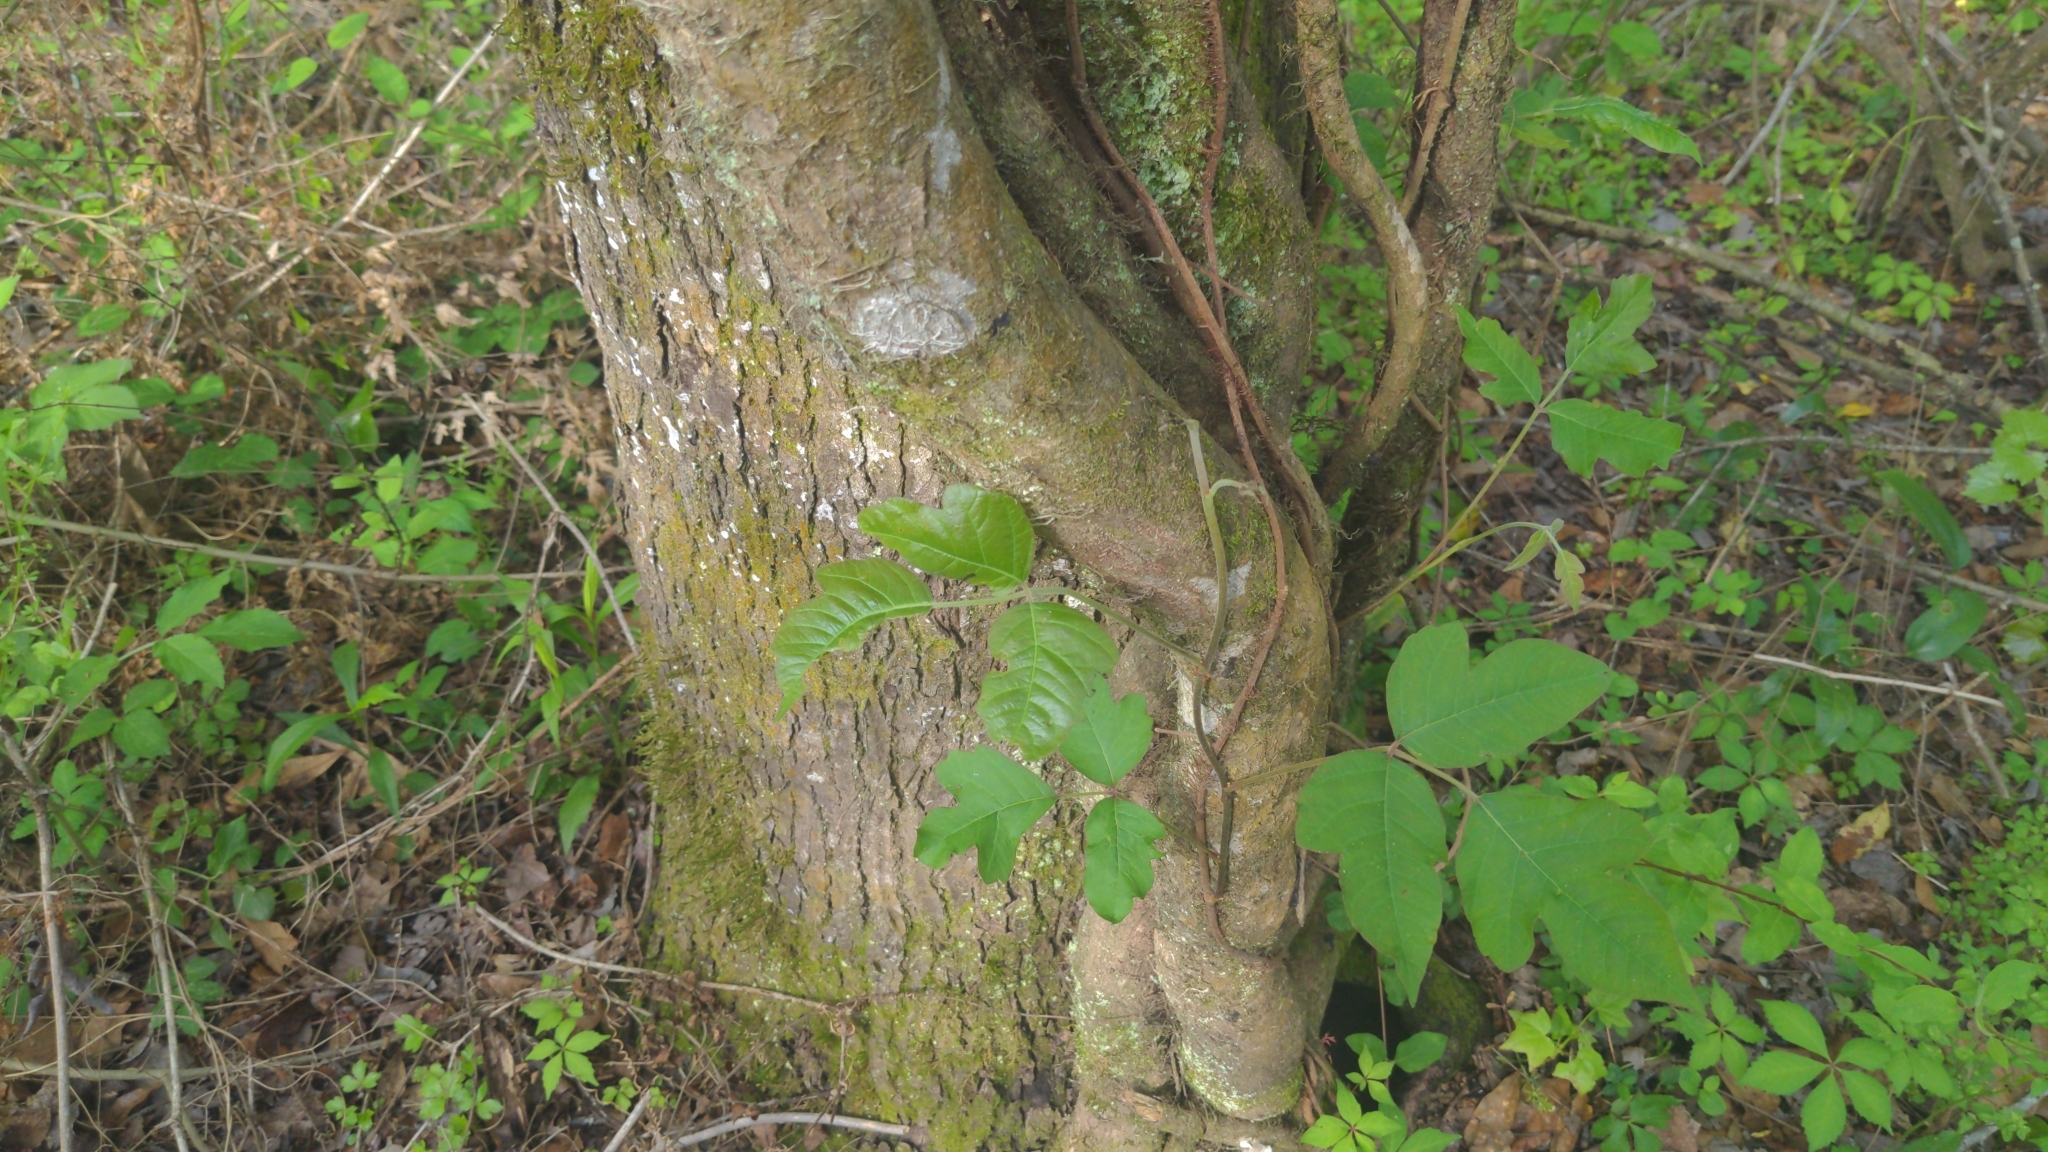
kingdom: Plantae
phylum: Tracheophyta
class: Magnoliopsida
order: Sapindales
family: Anacardiaceae
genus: Toxicodendron
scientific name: Toxicodendron radicans
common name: Poison ivy
